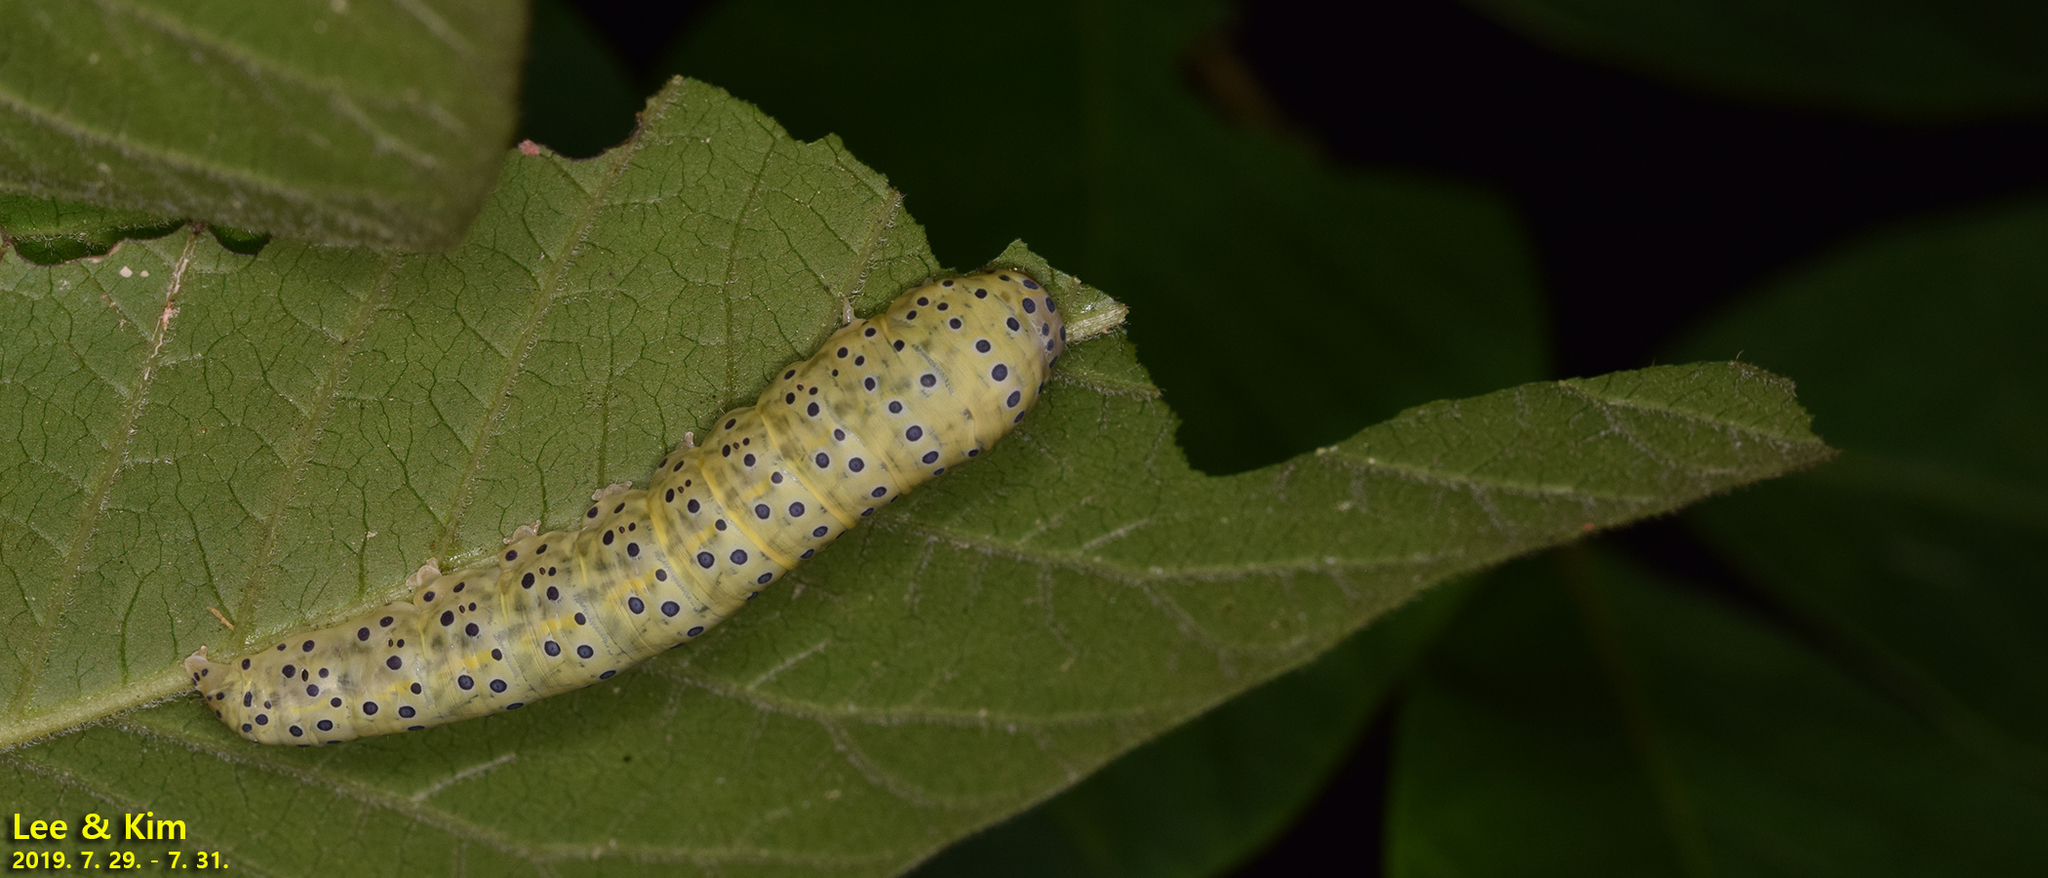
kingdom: Animalia
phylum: Arthropoda
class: Insecta
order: Lepidoptera
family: Euteliidae
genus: Anuga
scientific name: Anuga multiplicans
